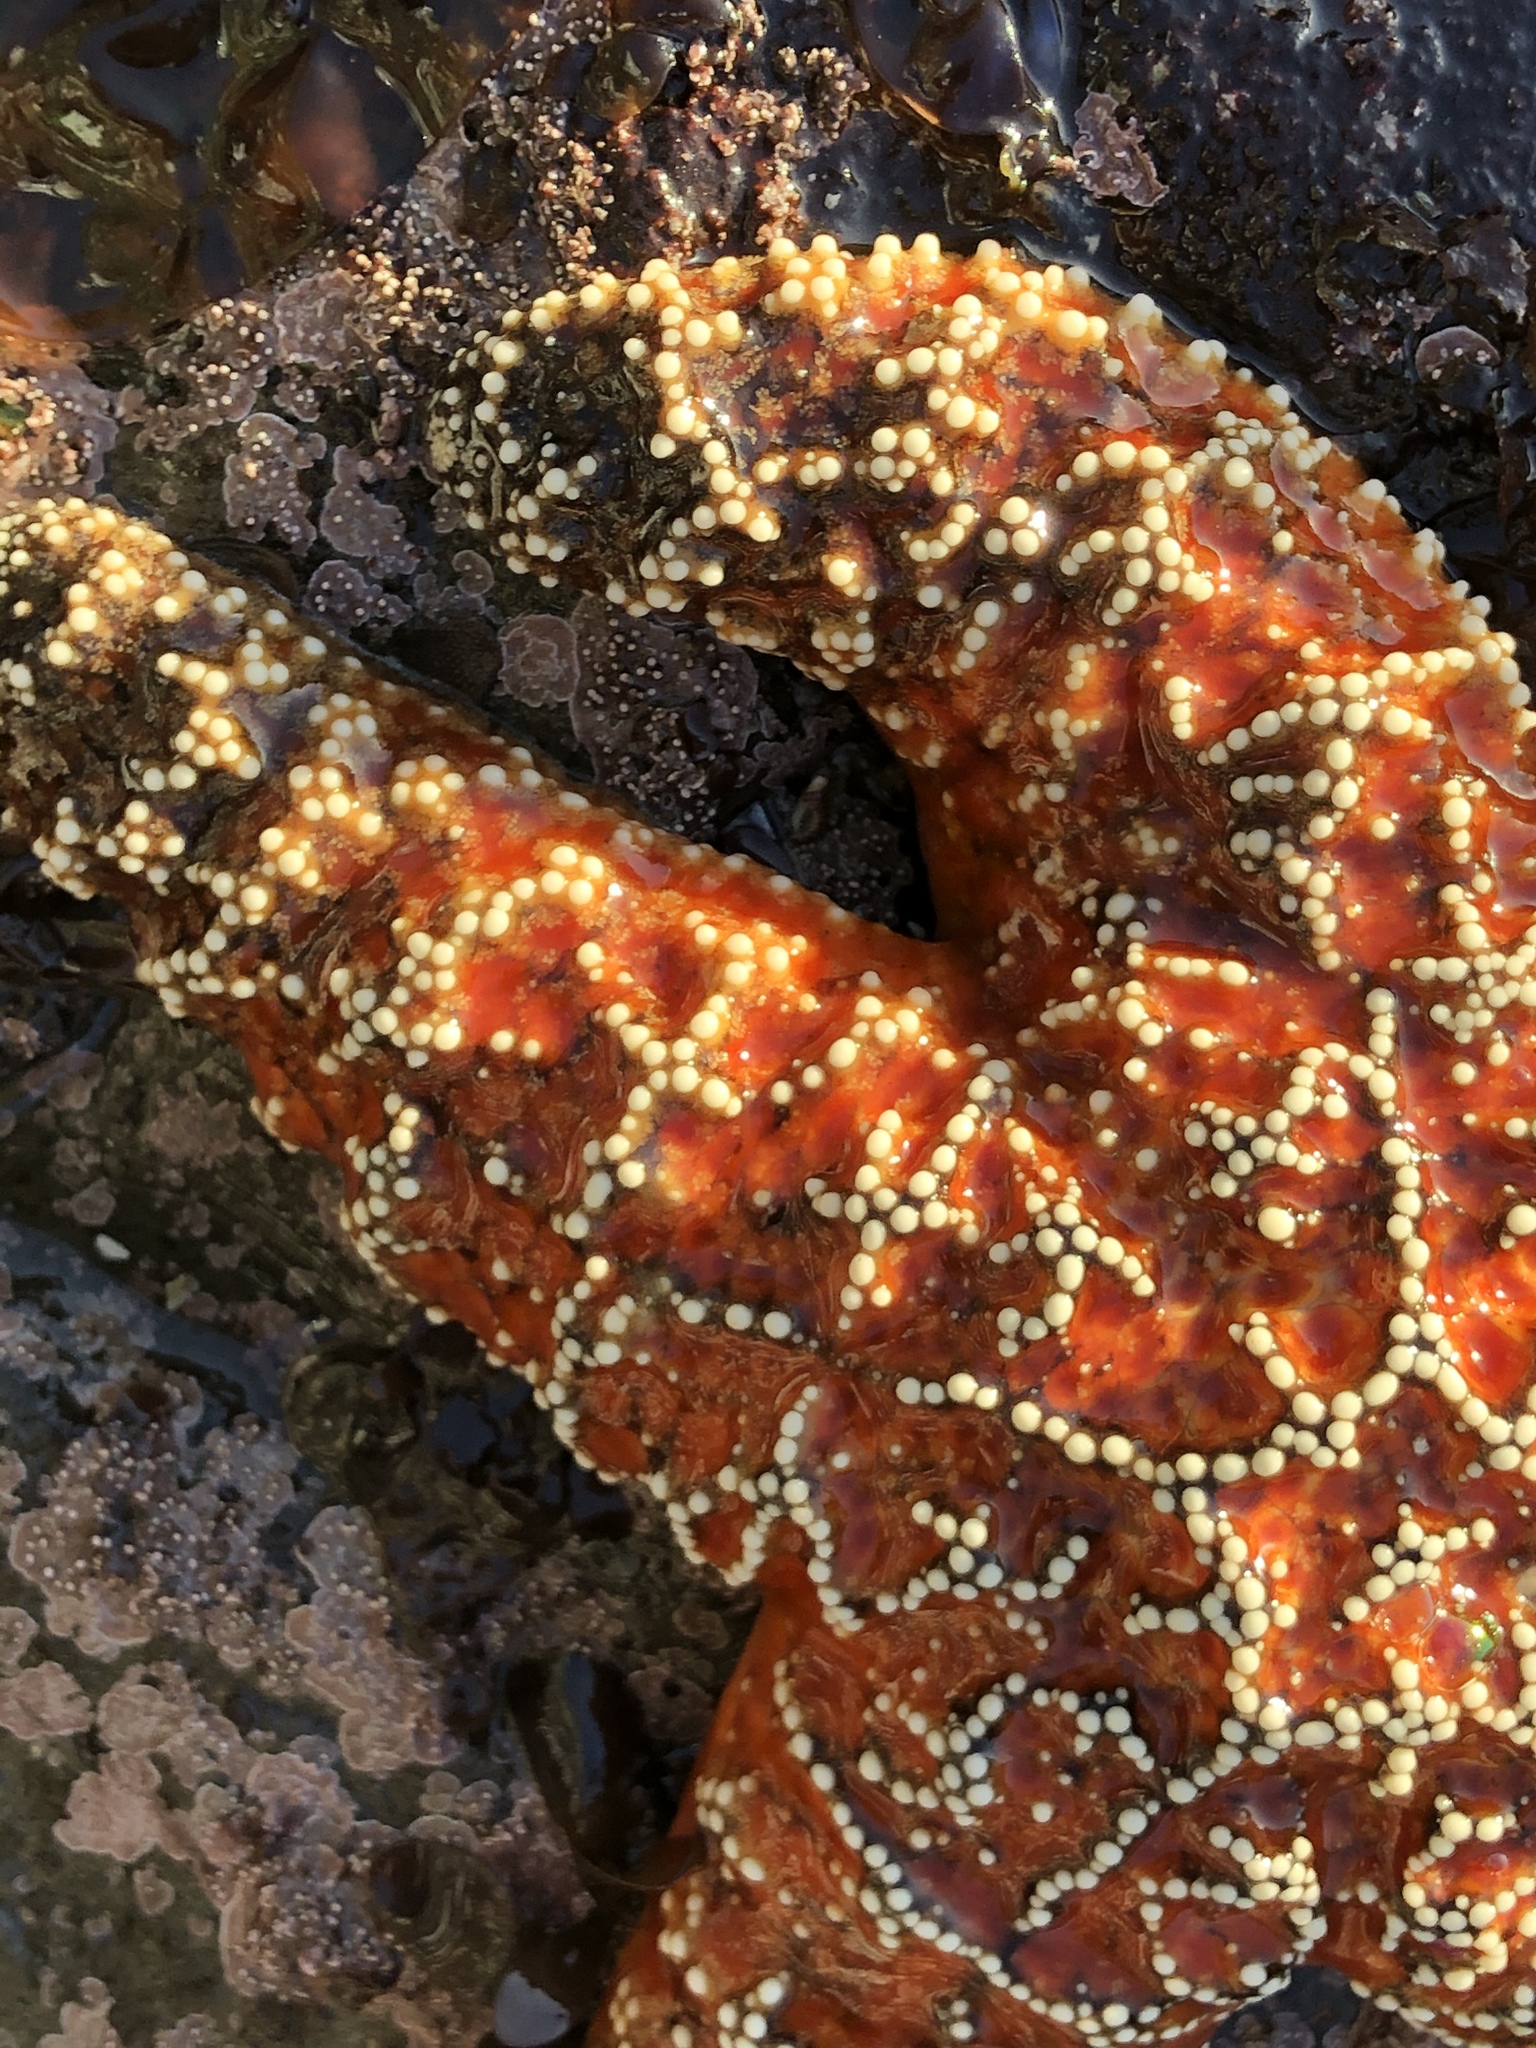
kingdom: Animalia
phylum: Echinodermata
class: Asteroidea
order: Forcipulatida
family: Asteriidae
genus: Pisaster
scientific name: Pisaster ochraceus
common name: Ochre stars
